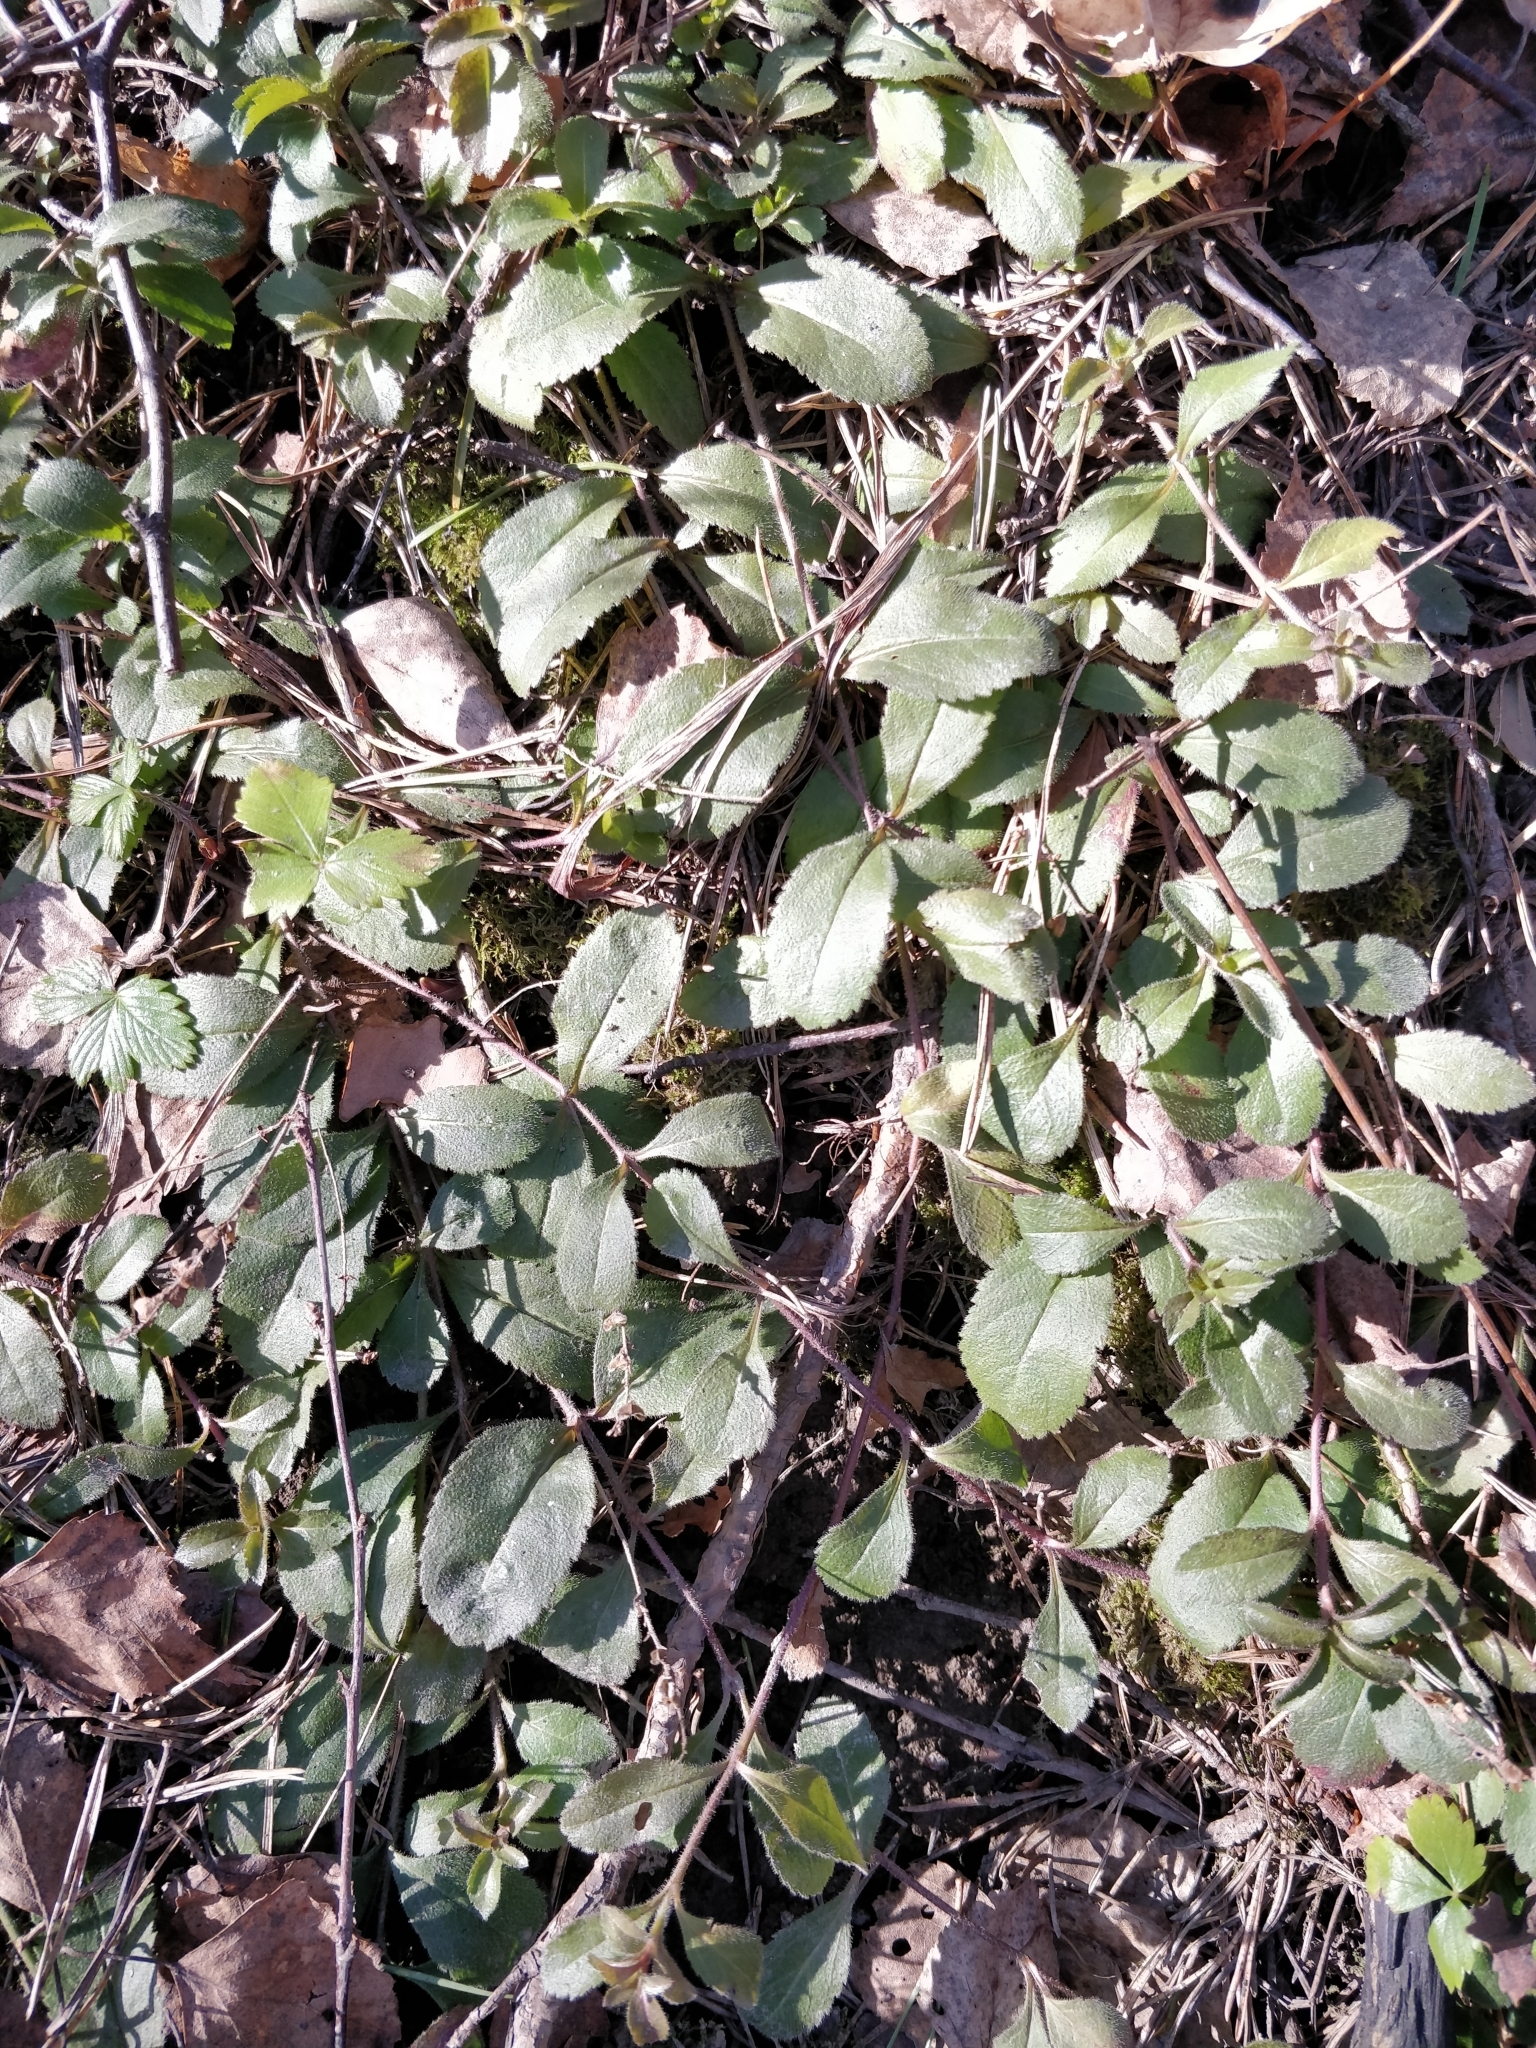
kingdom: Plantae
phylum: Tracheophyta
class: Magnoliopsida
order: Lamiales
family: Plantaginaceae
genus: Veronica
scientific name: Veronica officinalis
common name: Common speedwell
